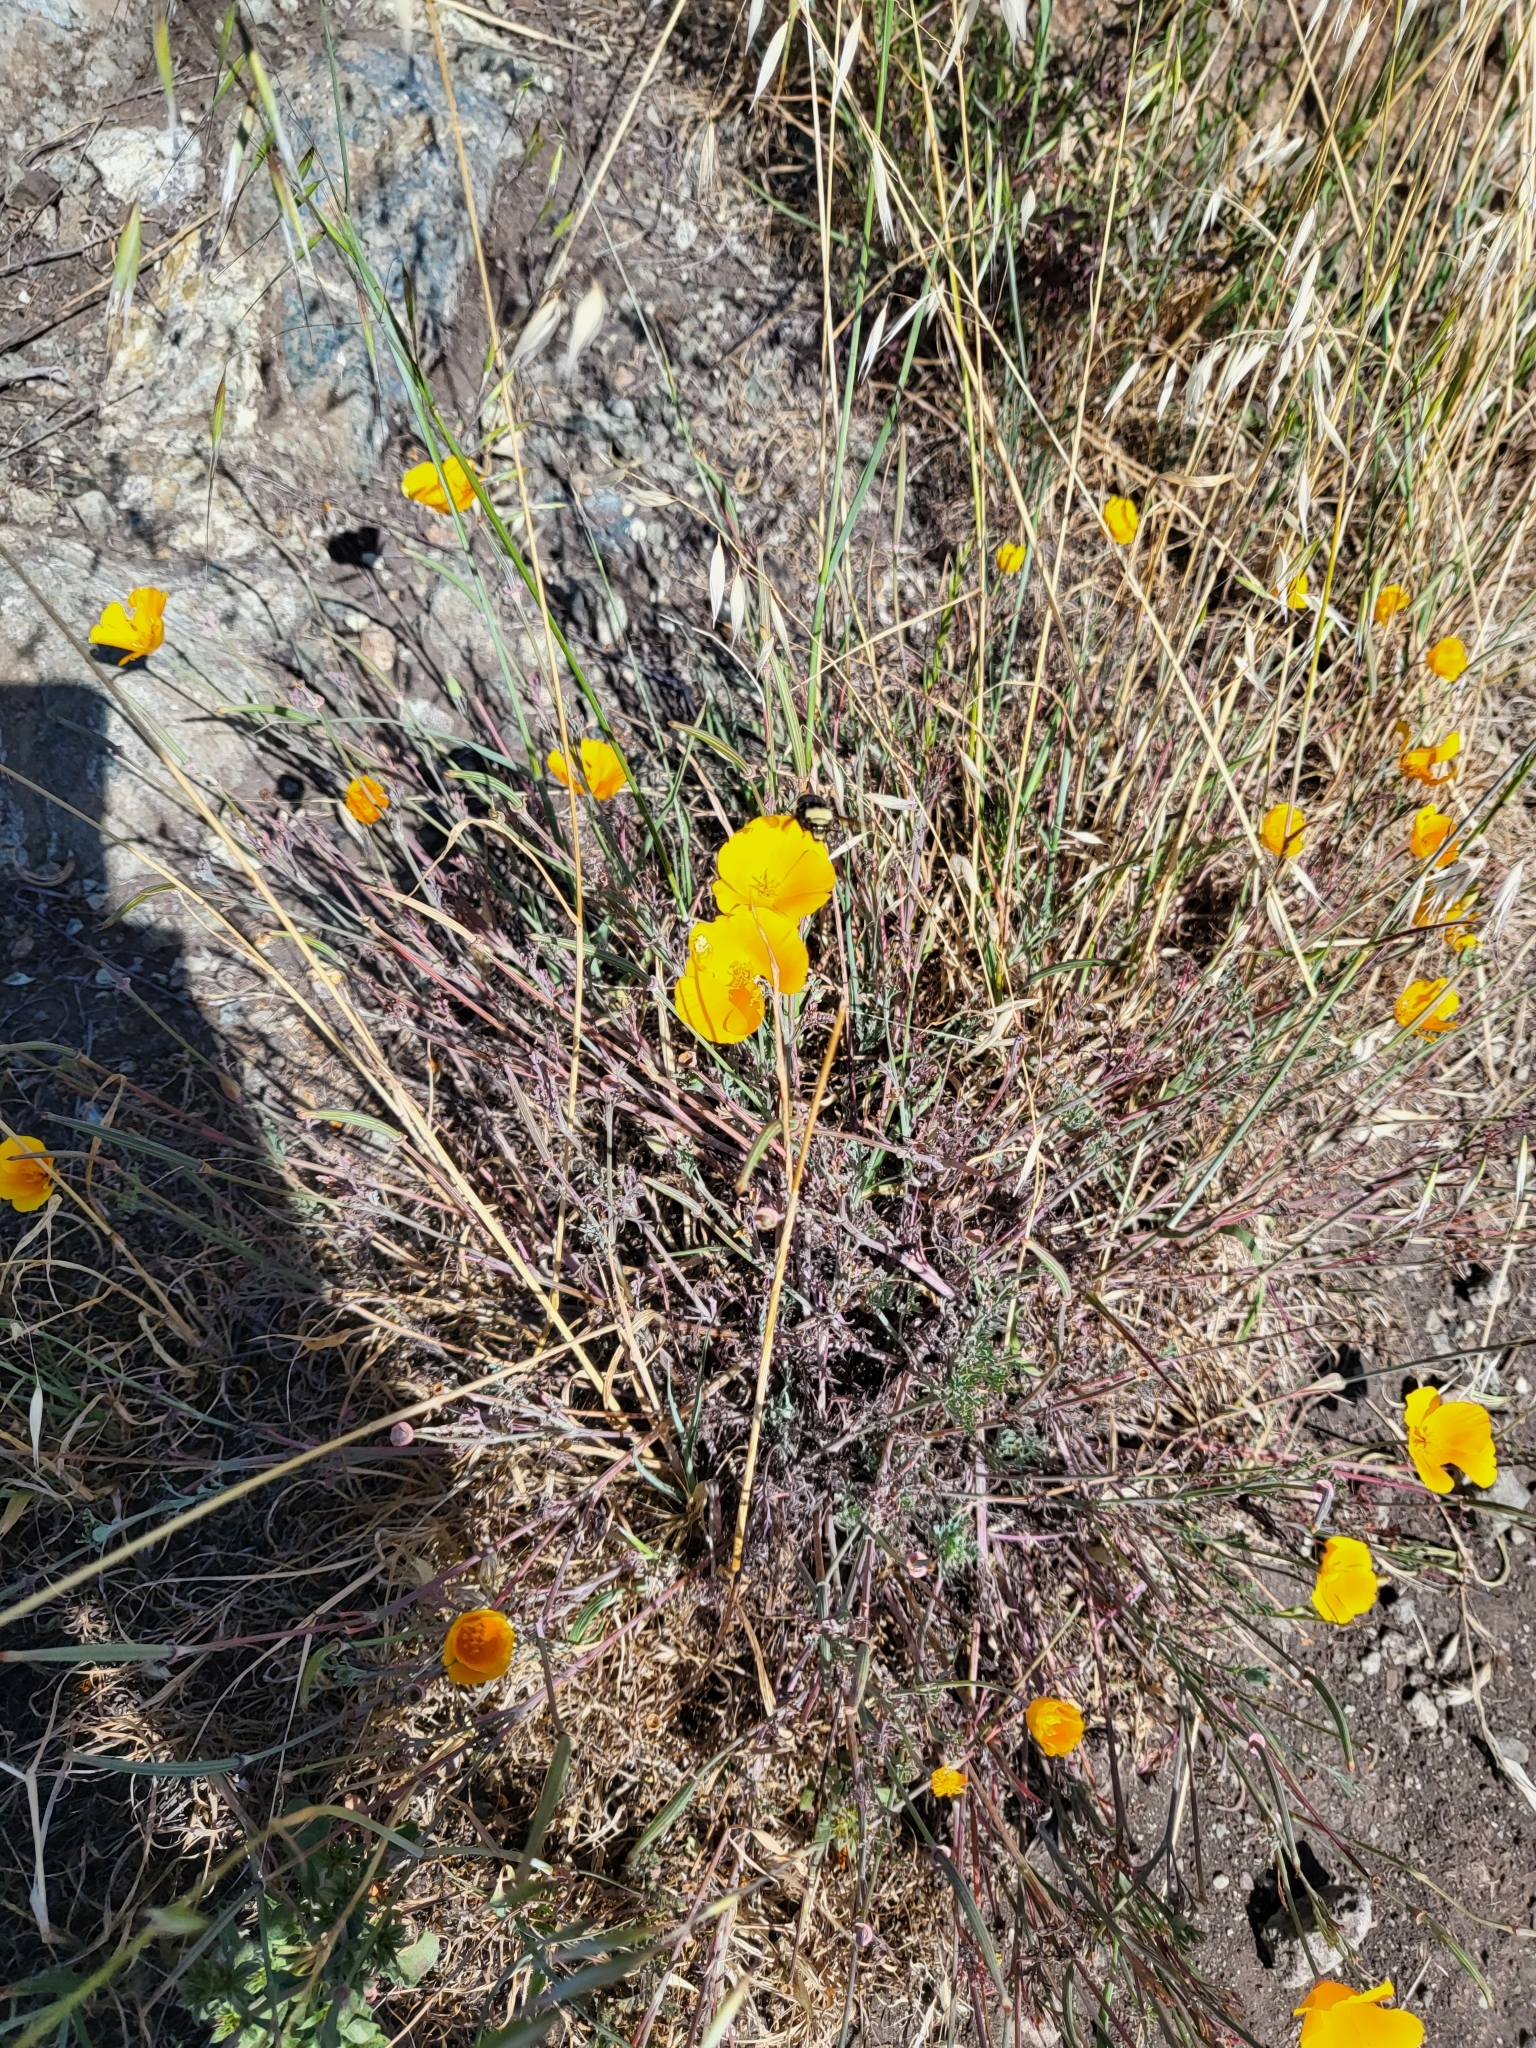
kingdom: Plantae
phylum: Tracheophyta
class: Magnoliopsida
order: Ranunculales
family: Papaveraceae
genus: Eschscholzia
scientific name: Eschscholzia californica
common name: California poppy
